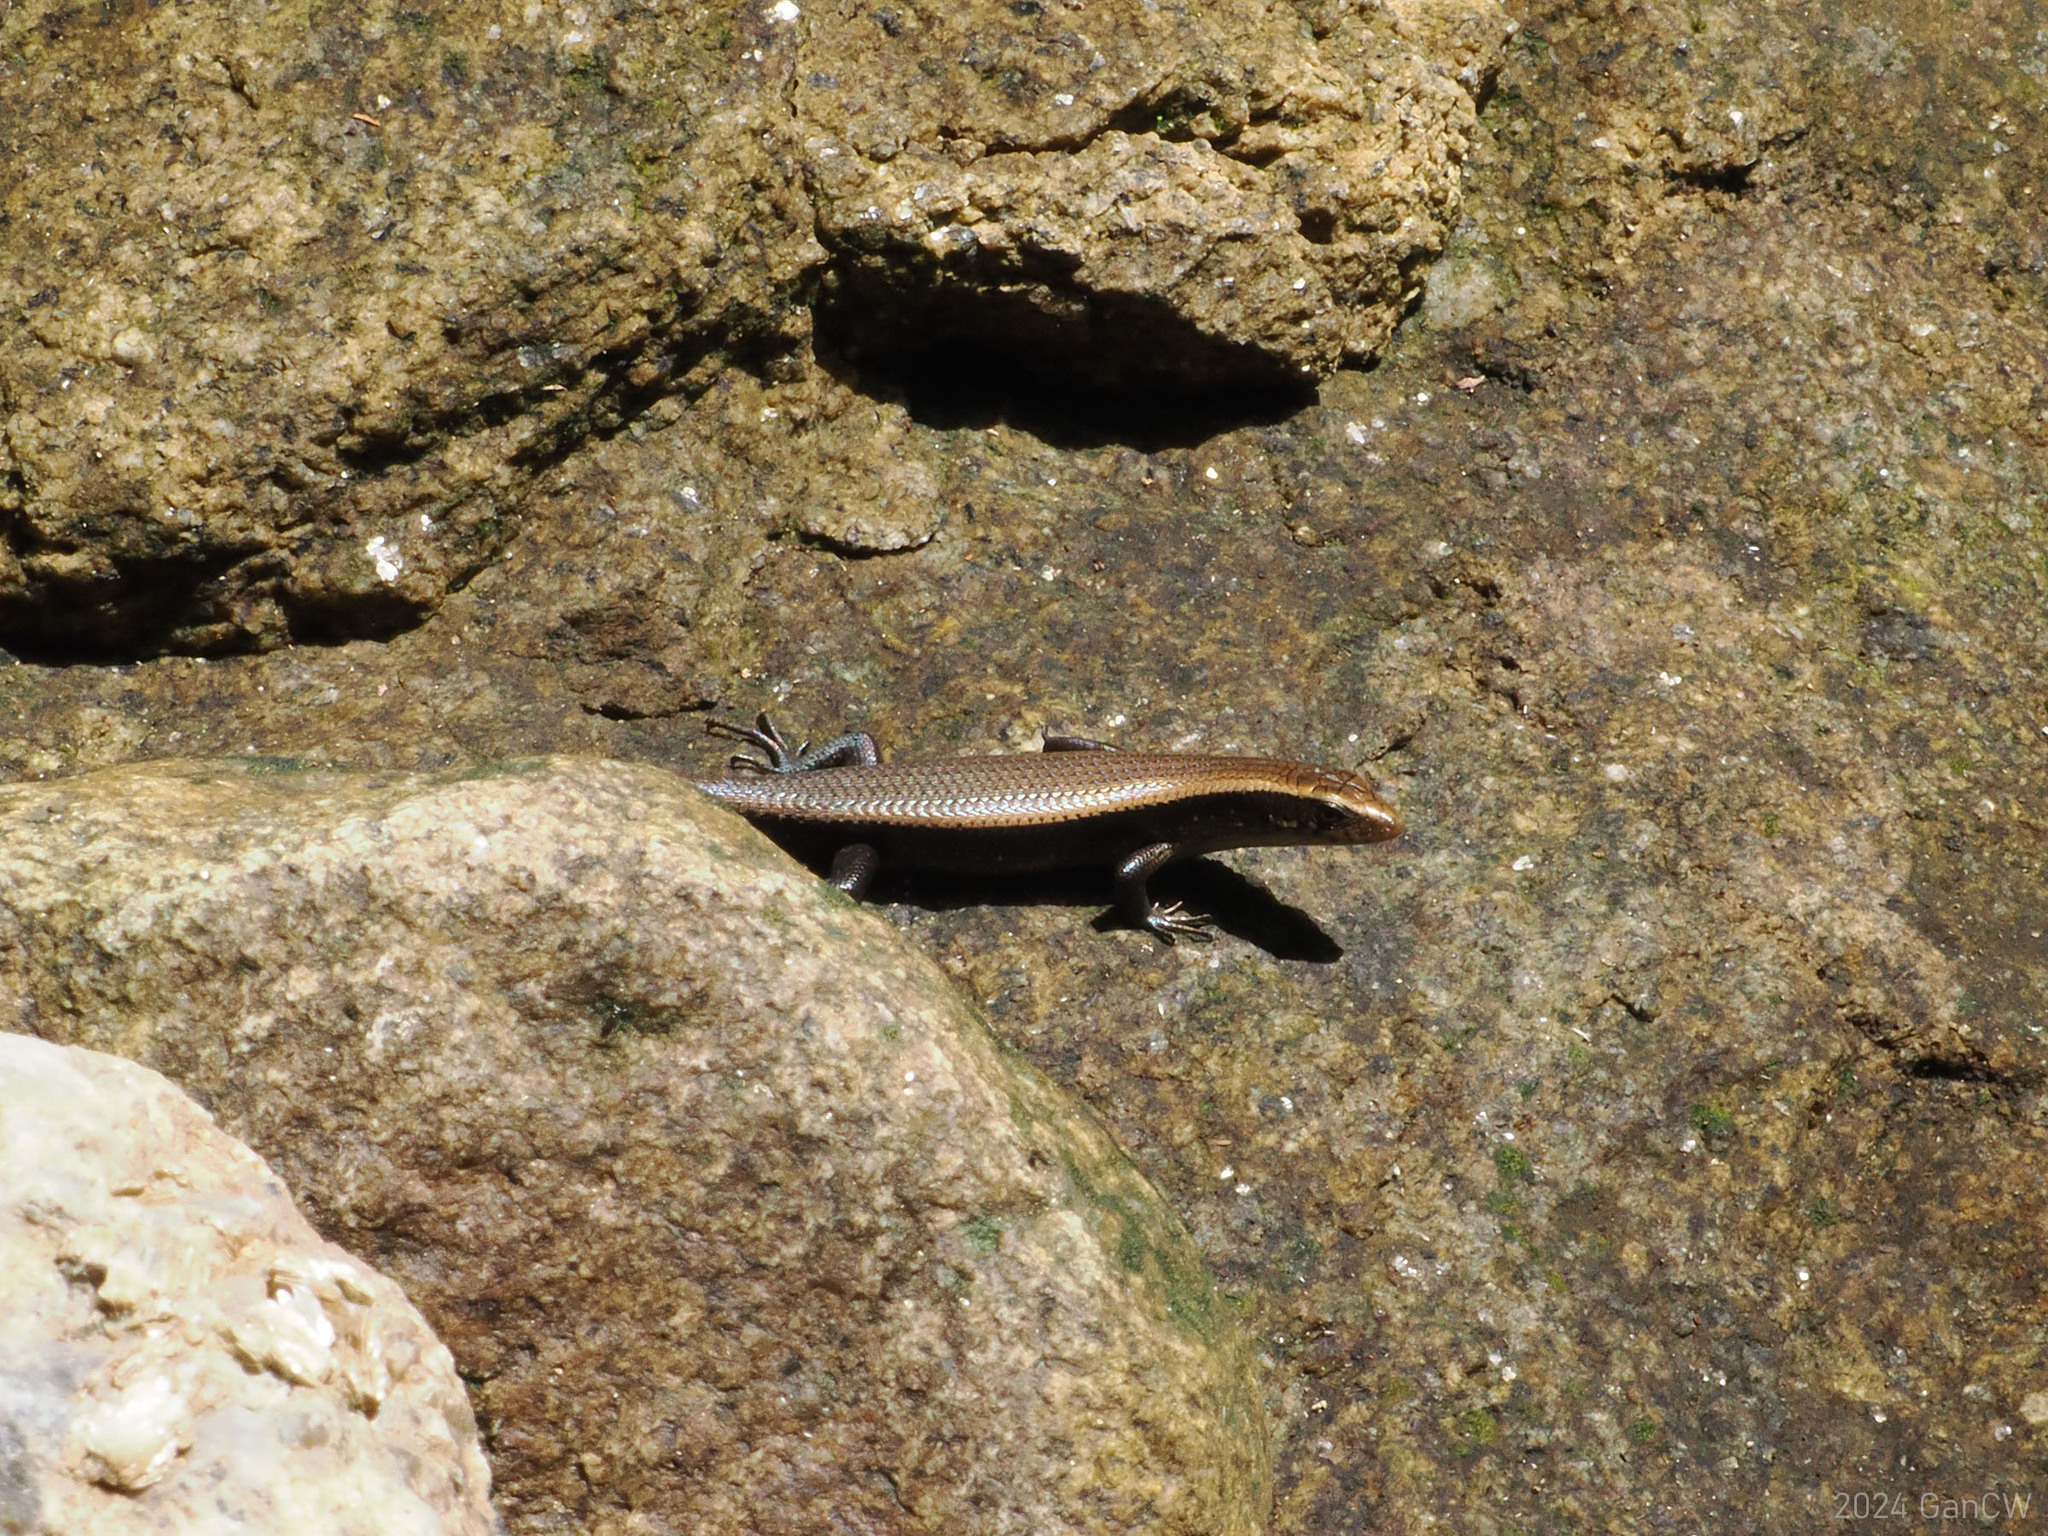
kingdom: Animalia
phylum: Chordata
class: Squamata
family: Scincidae
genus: Eutropis
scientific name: Eutropis multifasciata
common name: Common mabuya
